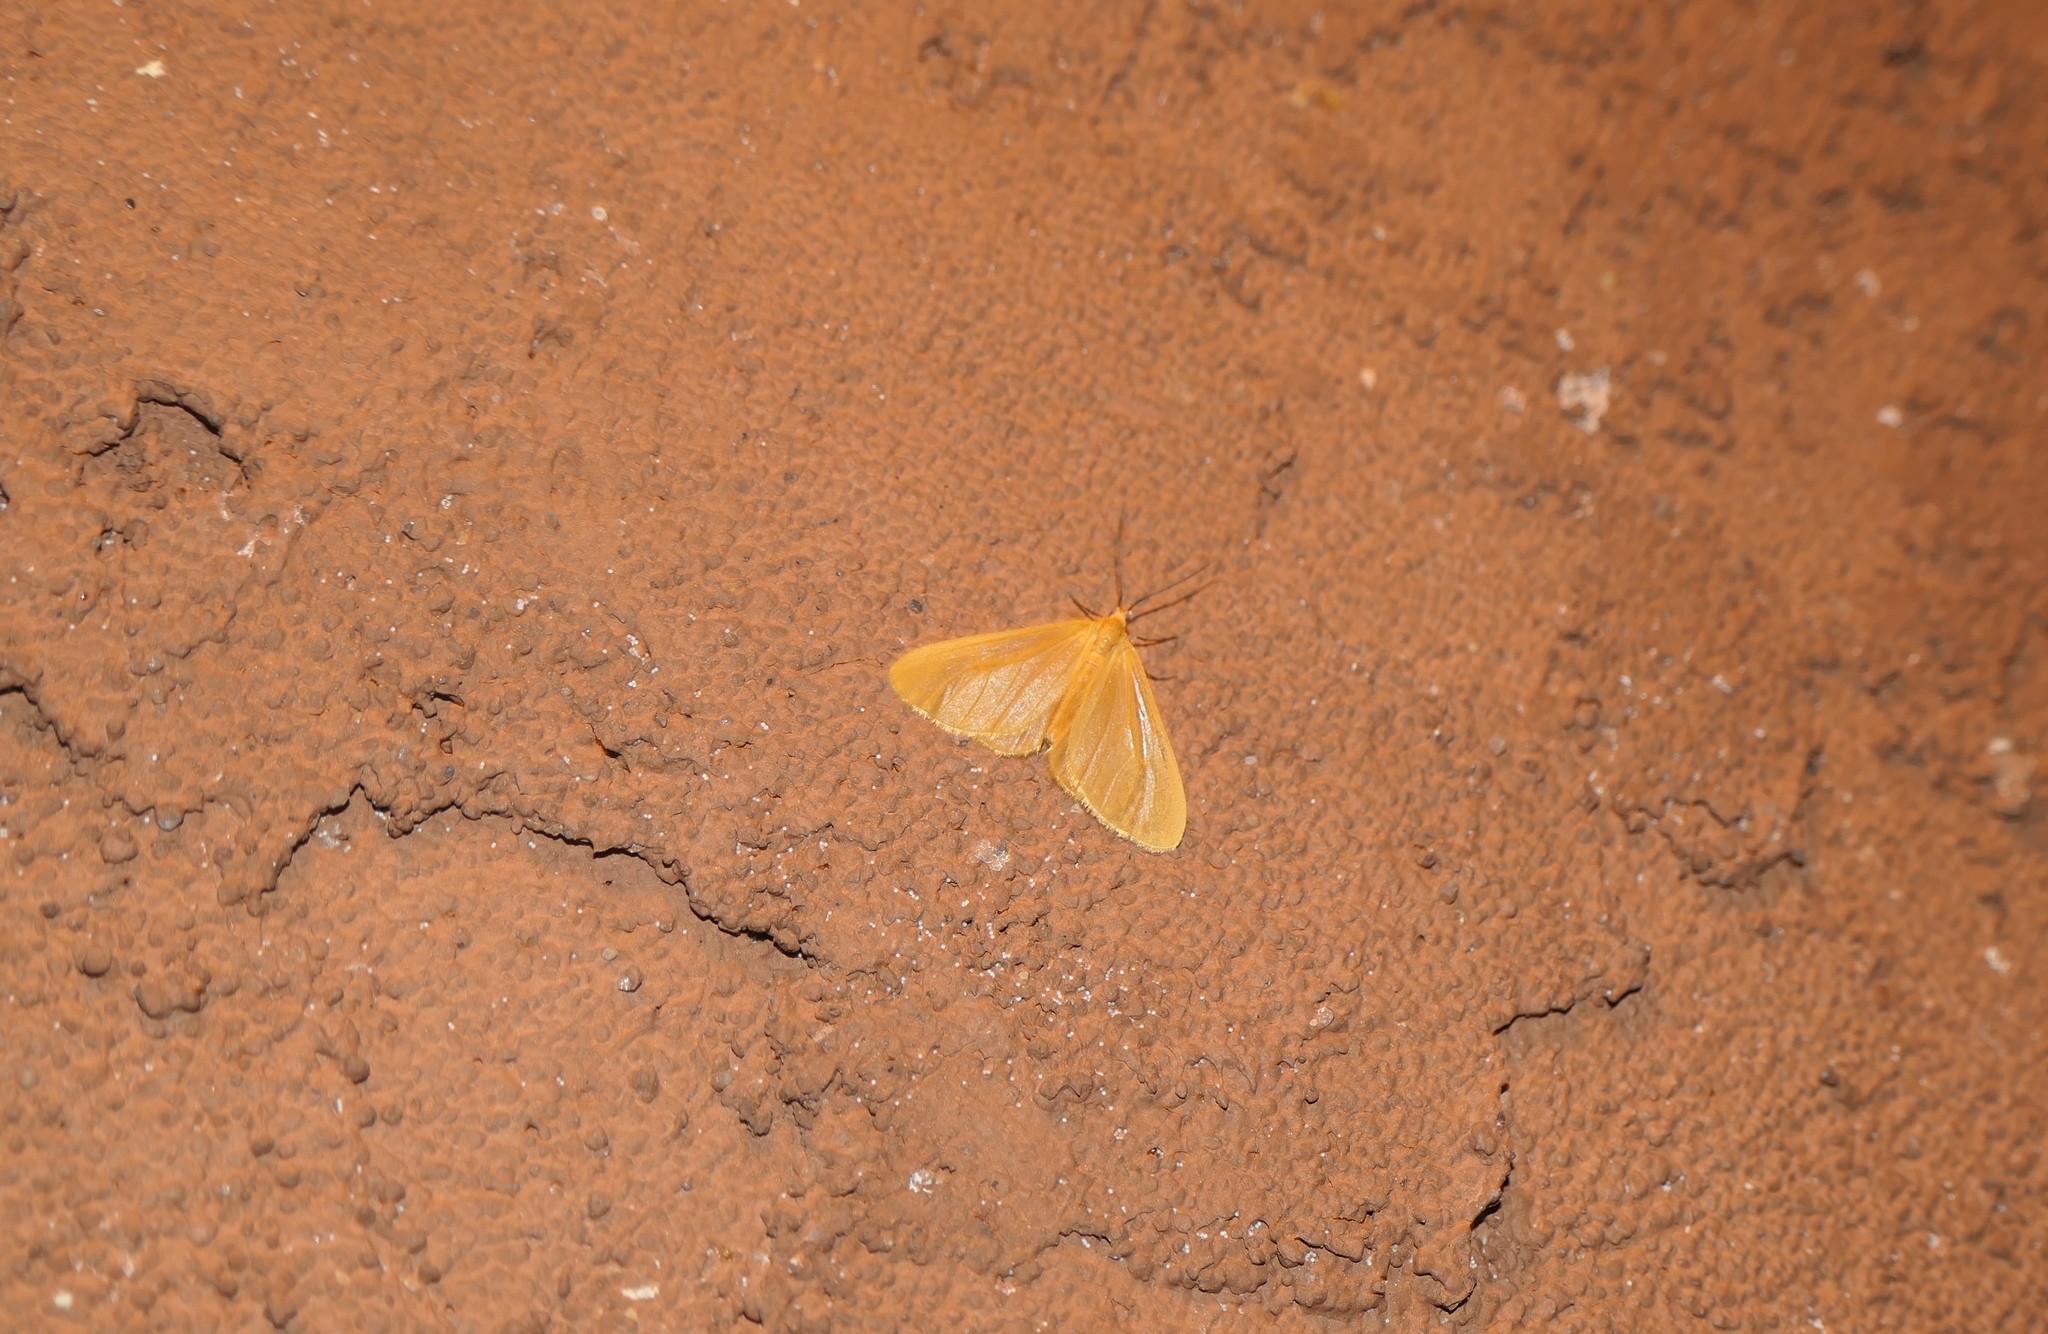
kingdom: Animalia
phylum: Arthropoda
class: Insecta
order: Lepidoptera
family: Geometridae
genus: Eubaphe
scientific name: Eubaphe unicolor
